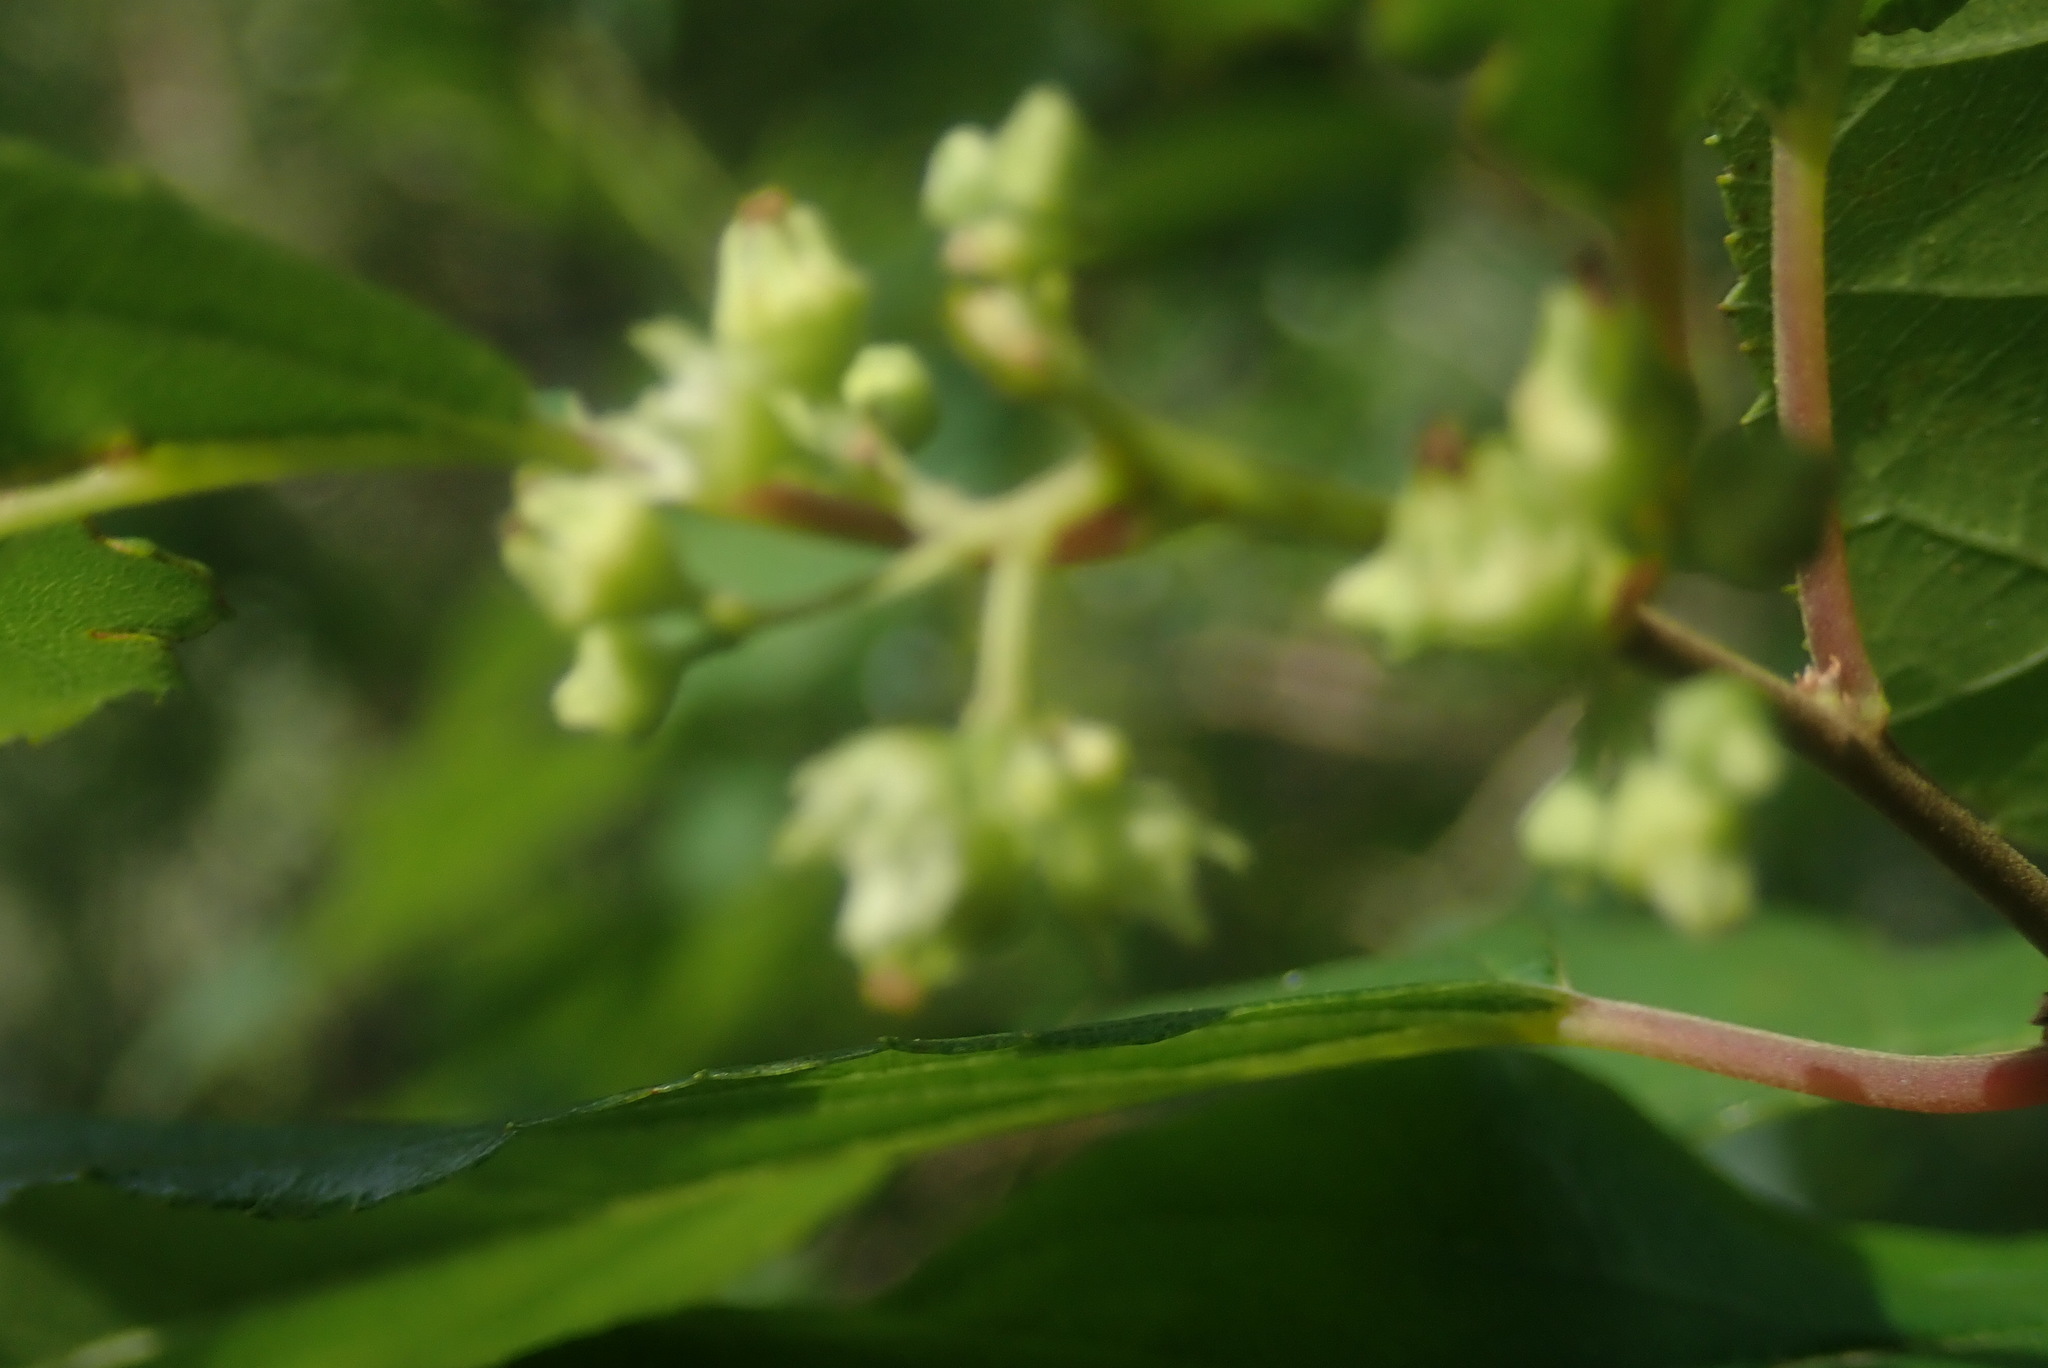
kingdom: Plantae
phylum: Tracheophyta
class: Magnoliopsida
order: Malpighiales
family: Salicaceae
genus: Trimeria
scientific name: Trimeria grandifolia
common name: Wild mulberry
